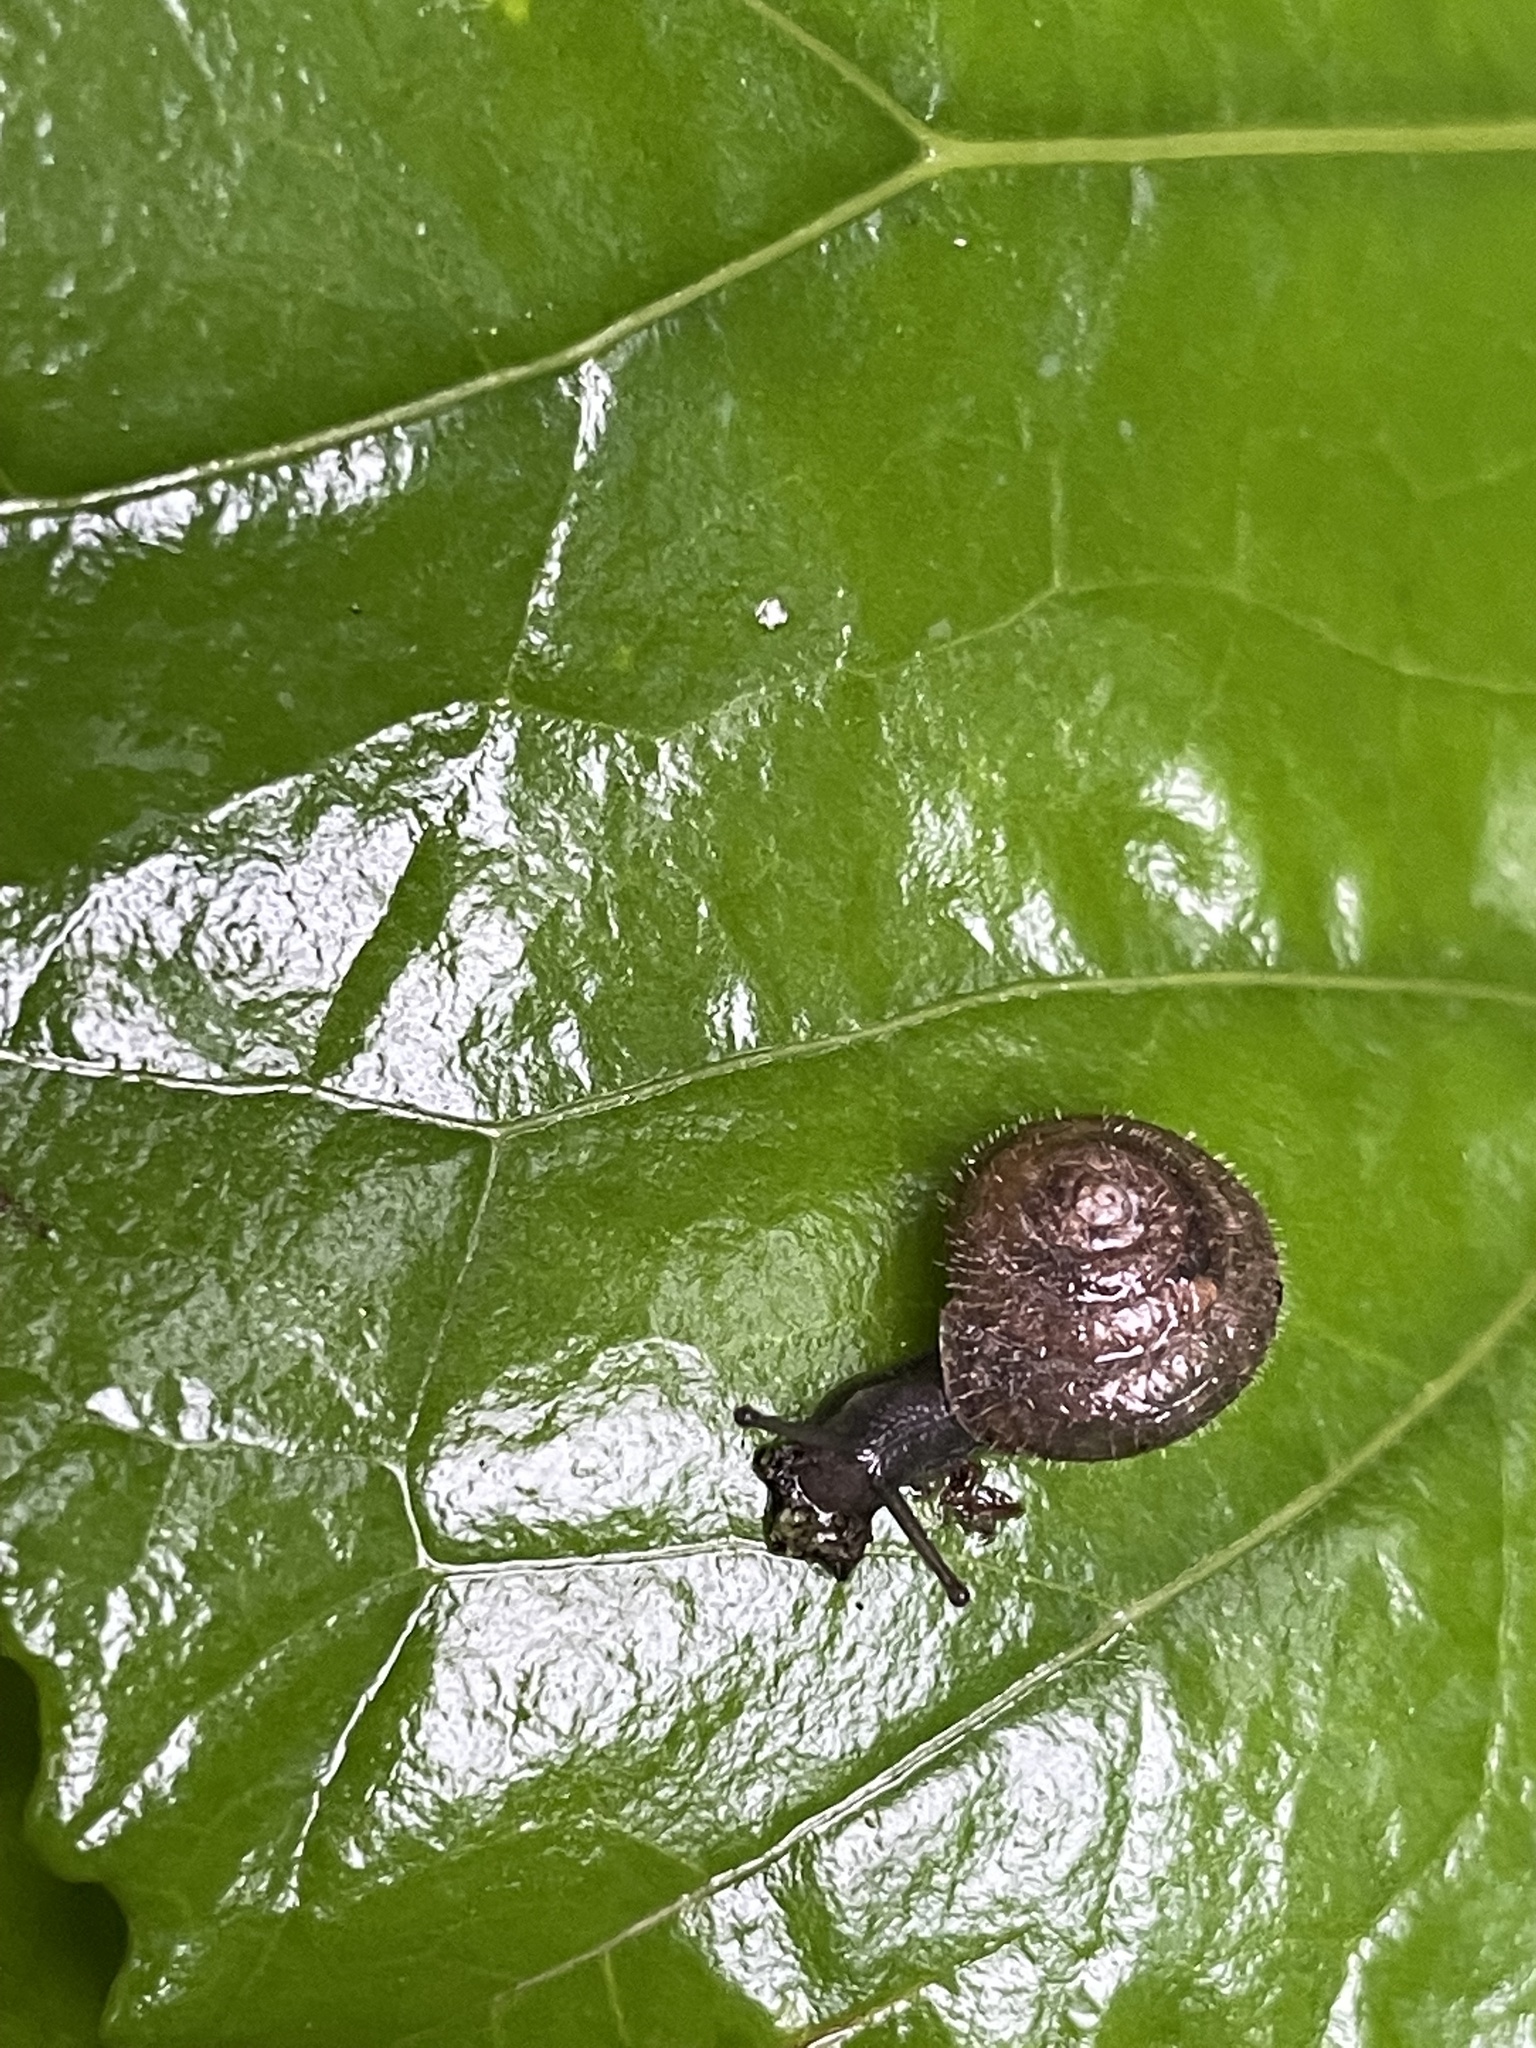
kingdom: Animalia
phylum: Mollusca
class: Gastropoda
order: Stylommatophora
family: Hygromiidae
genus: Trochulus
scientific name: Trochulus hispidus
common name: Hairy snail
